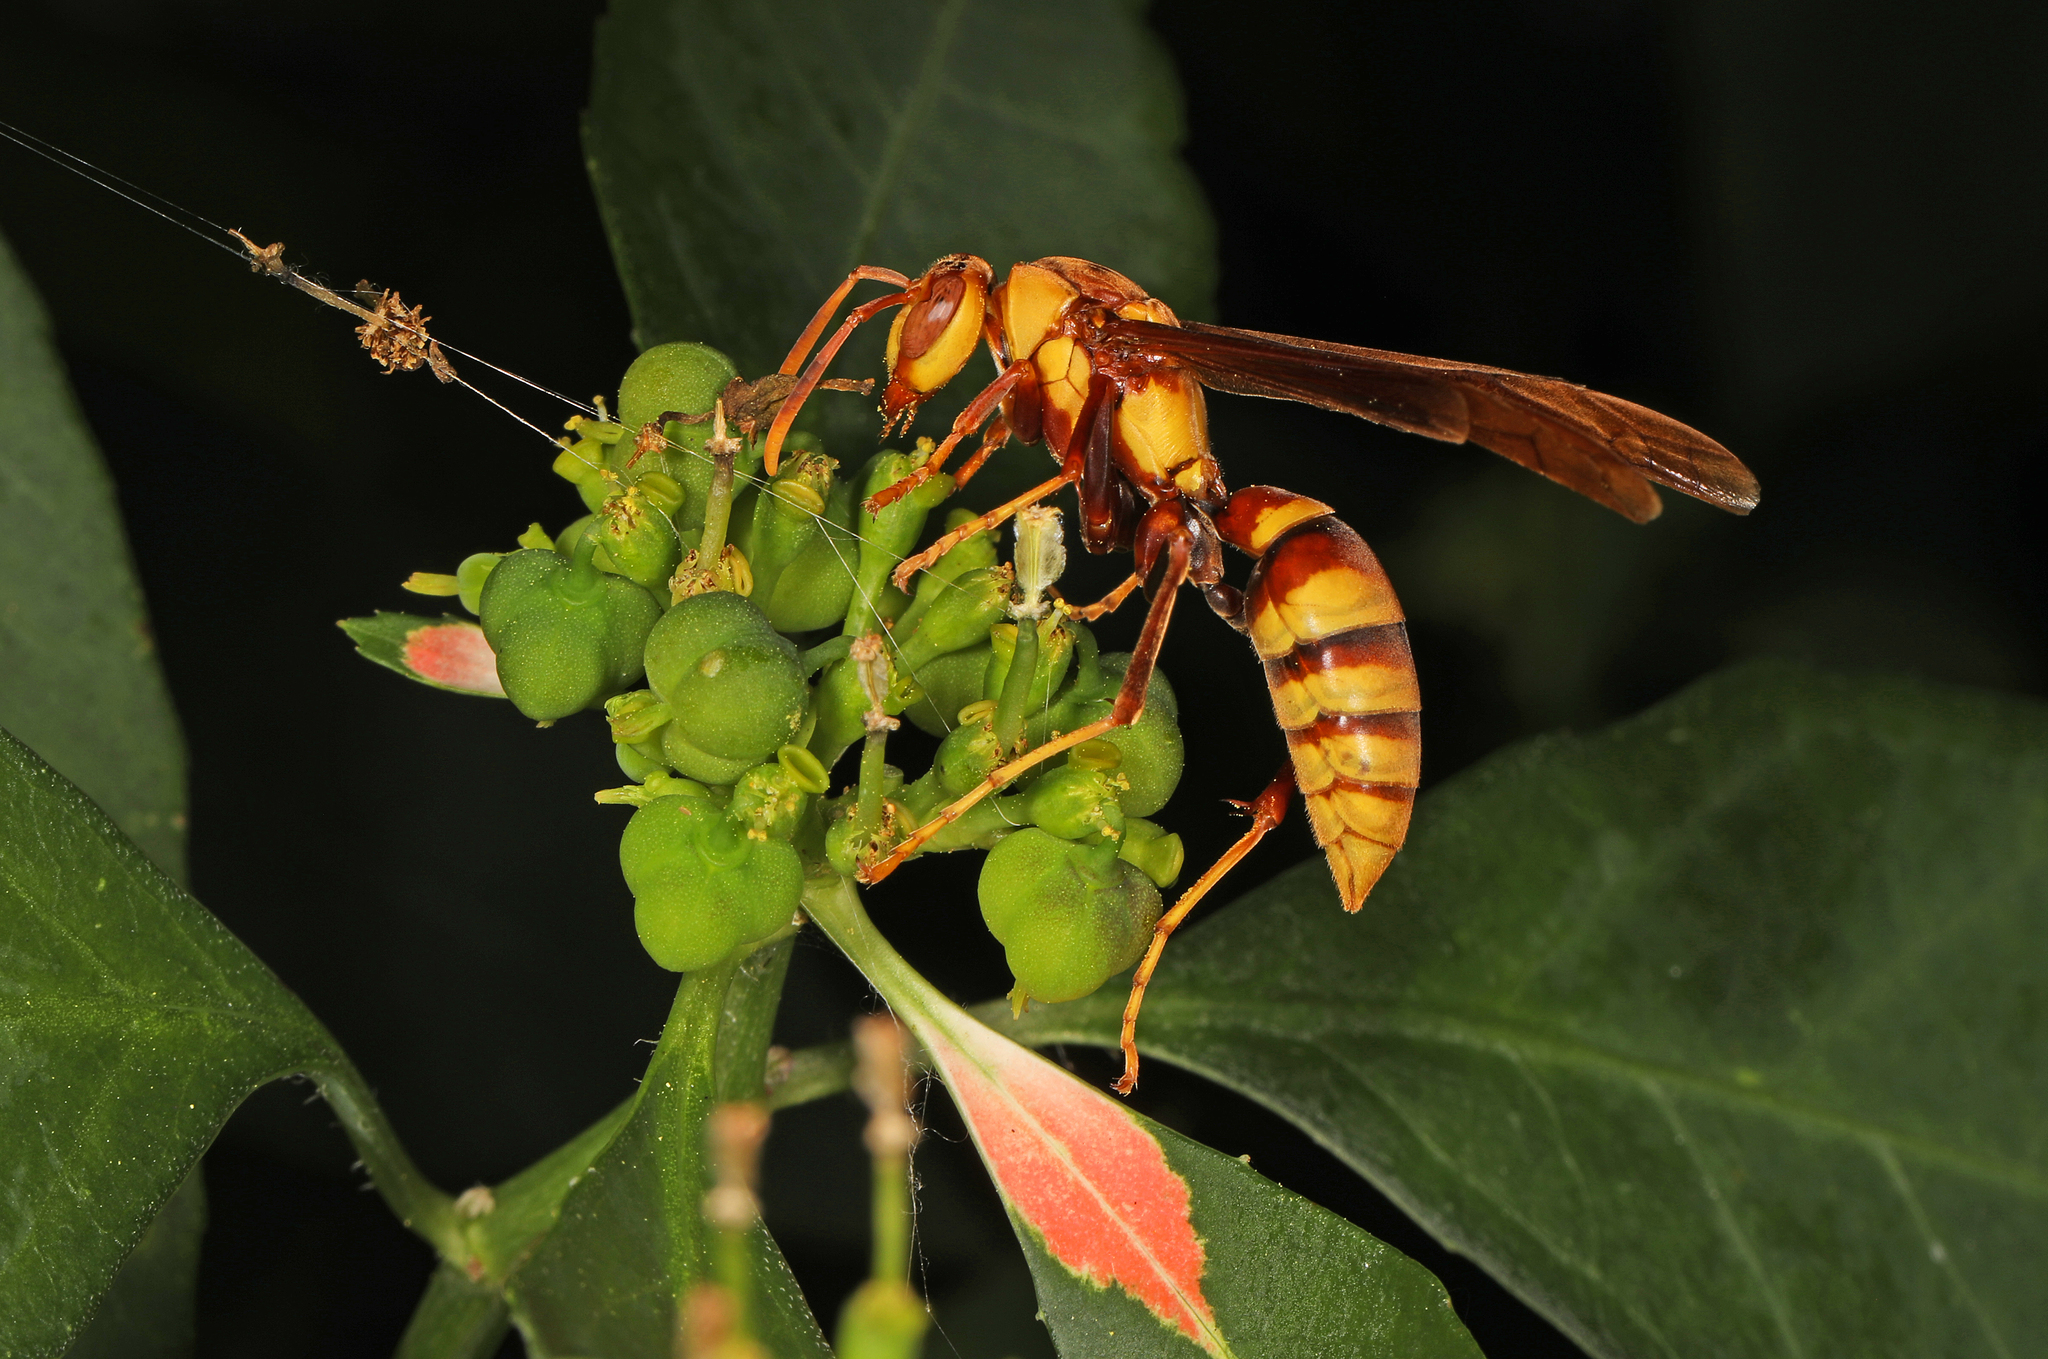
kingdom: Animalia
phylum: Arthropoda
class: Insecta
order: Hymenoptera
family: Eumenidae
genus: Polistes
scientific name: Polistes major
